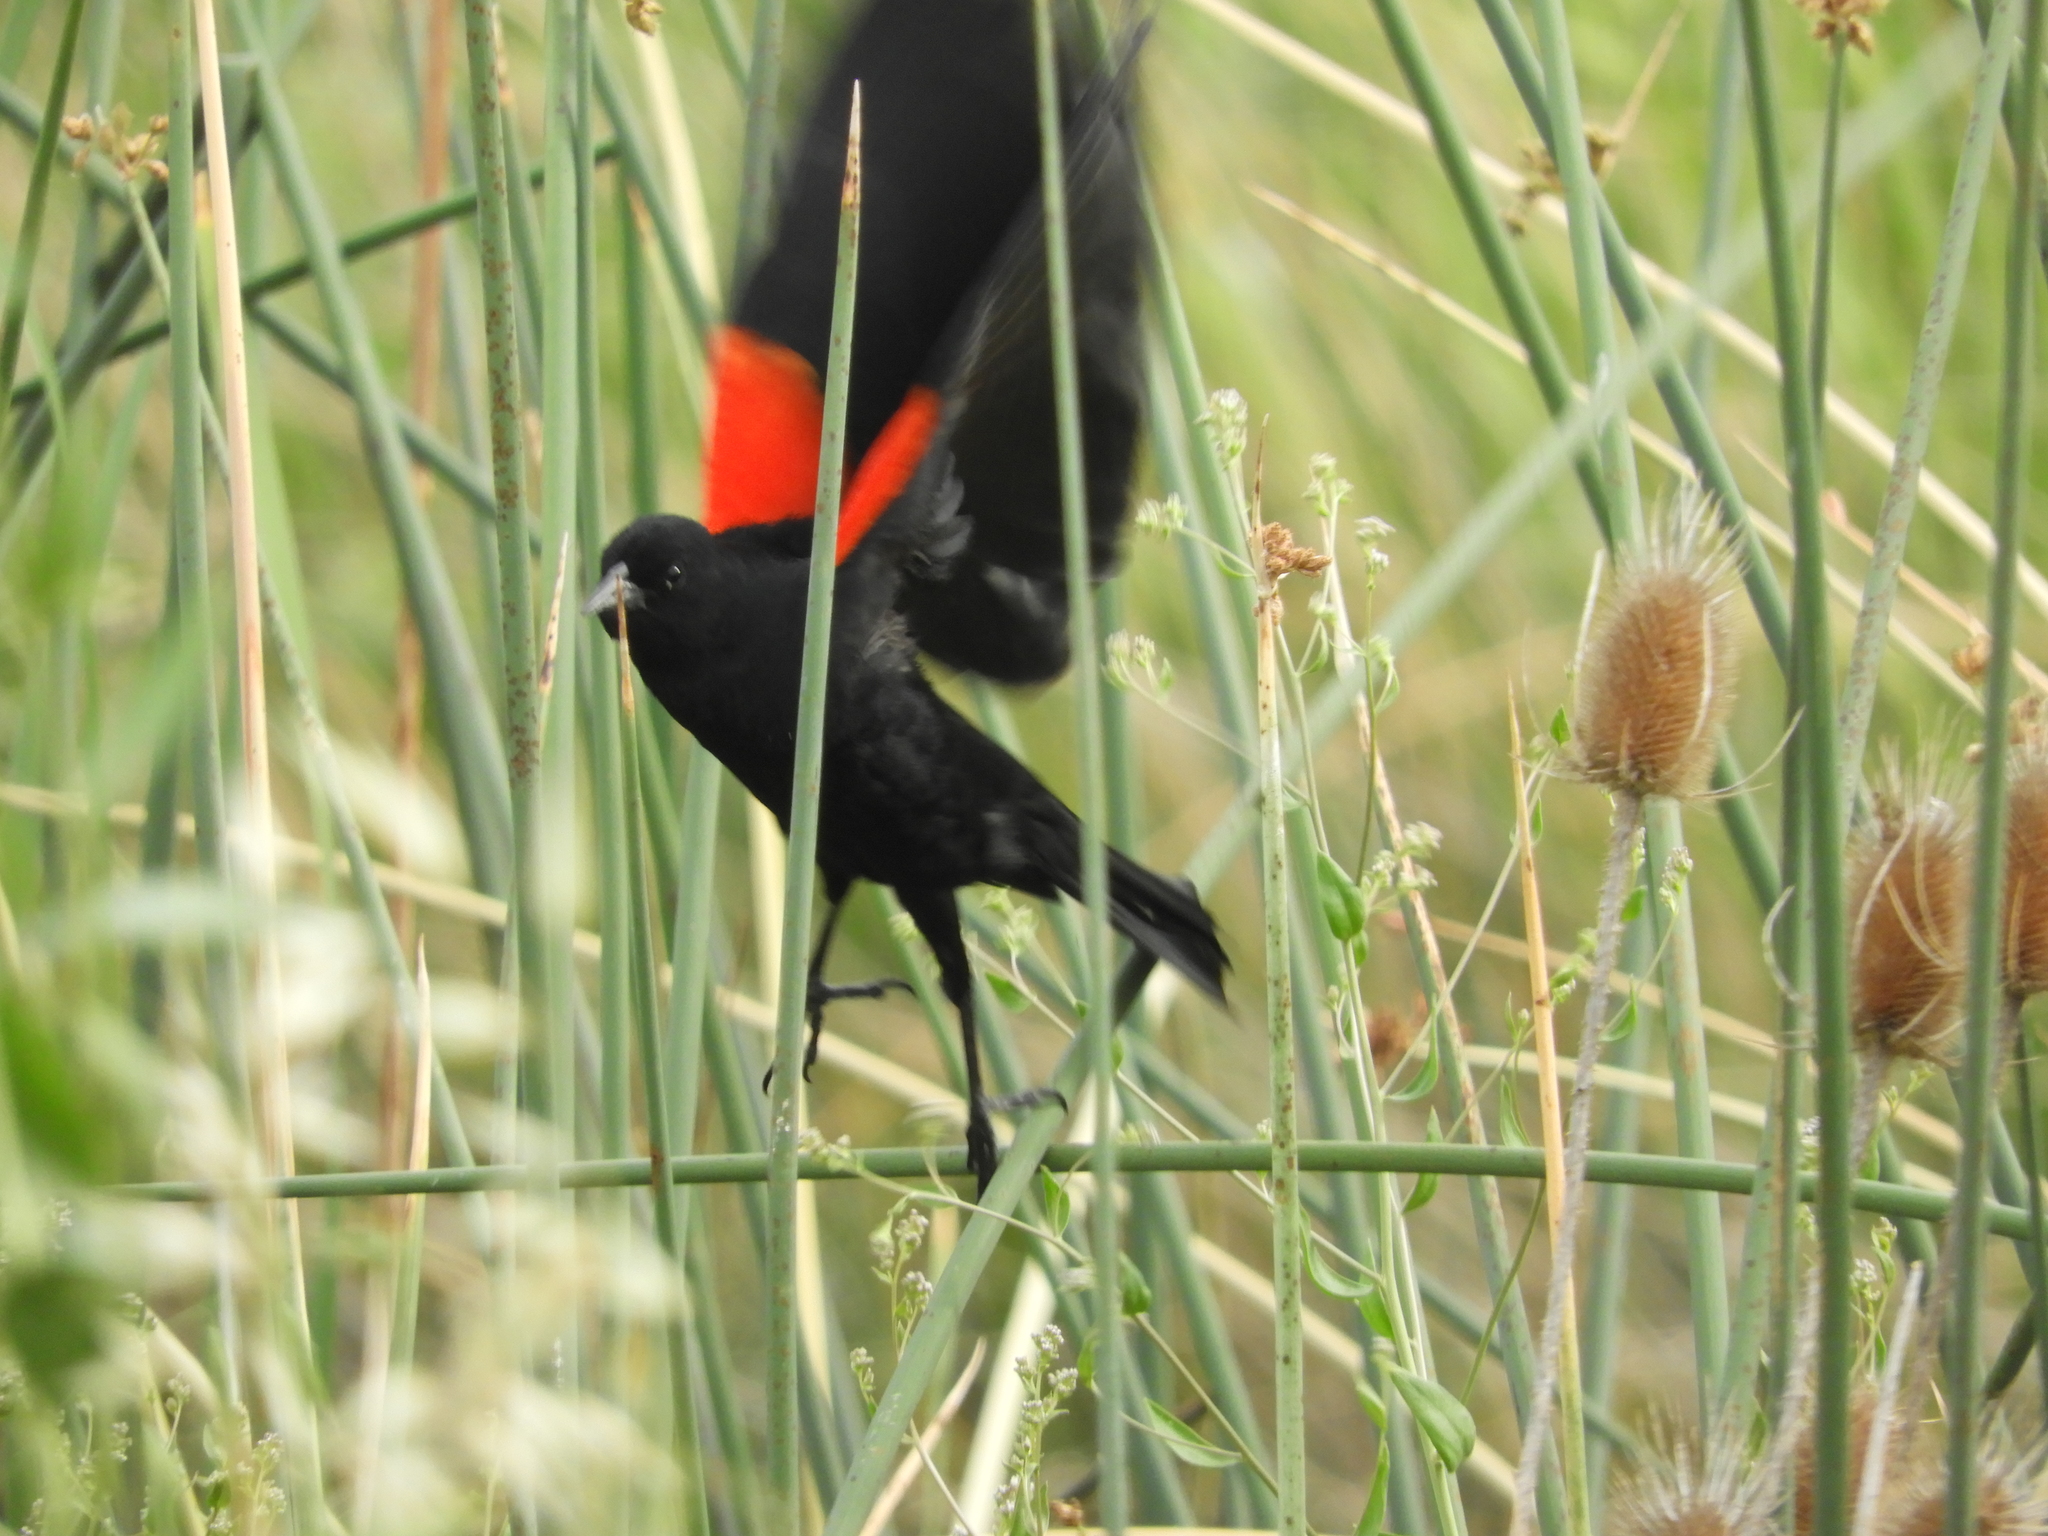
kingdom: Animalia
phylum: Chordata
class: Aves
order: Passeriformes
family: Icteridae
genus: Agelaius
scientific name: Agelaius phoeniceus
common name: Red-winged blackbird
